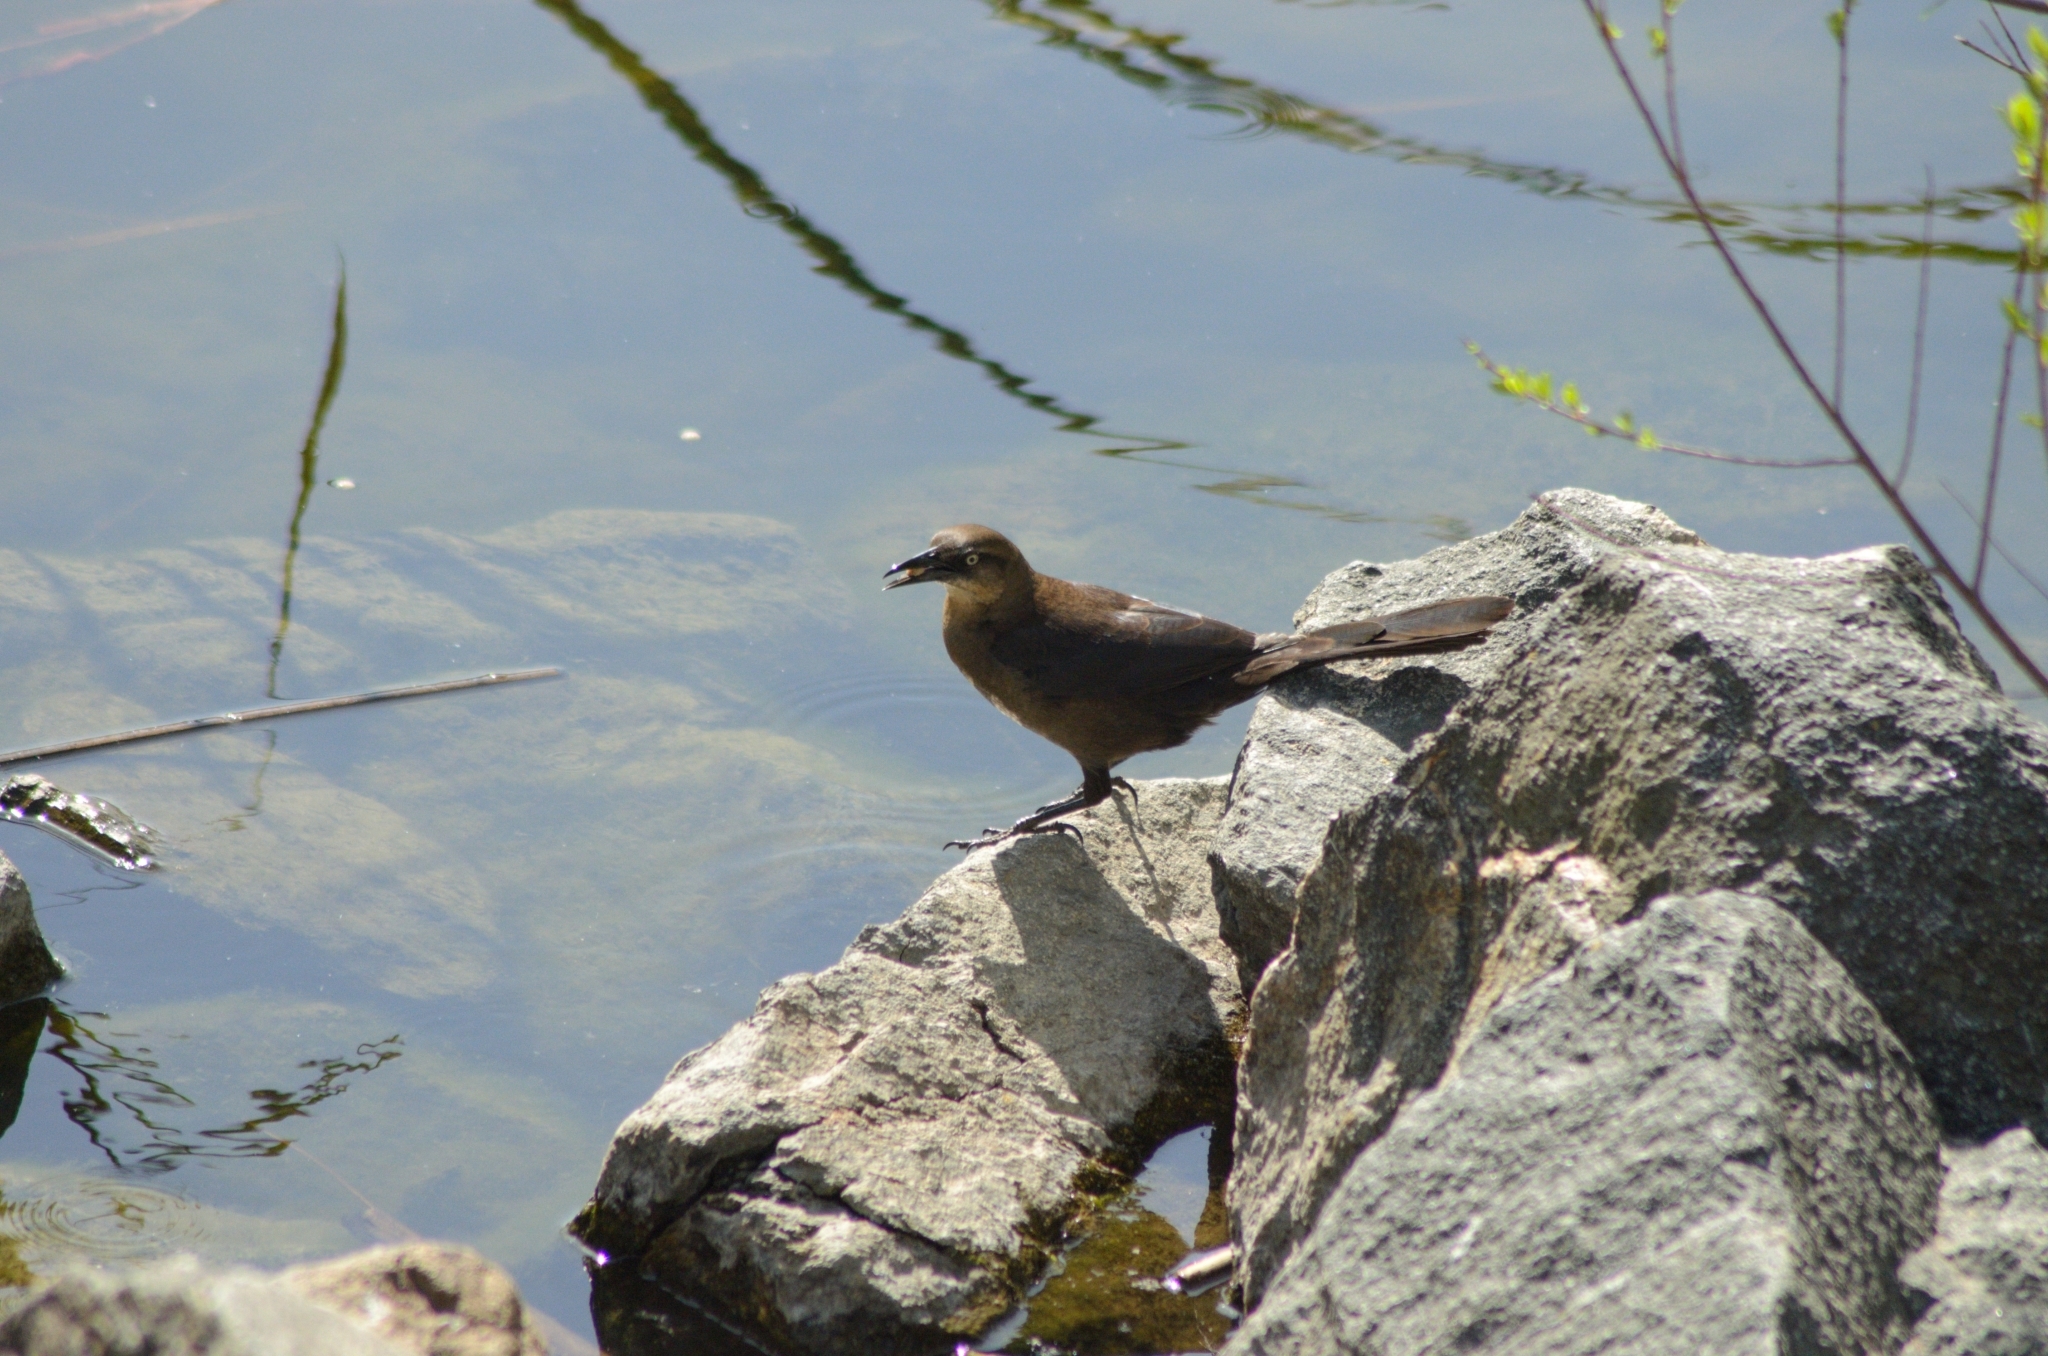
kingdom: Animalia
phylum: Chordata
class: Aves
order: Passeriformes
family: Icteridae
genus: Quiscalus
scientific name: Quiscalus mexicanus
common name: Great-tailed grackle
